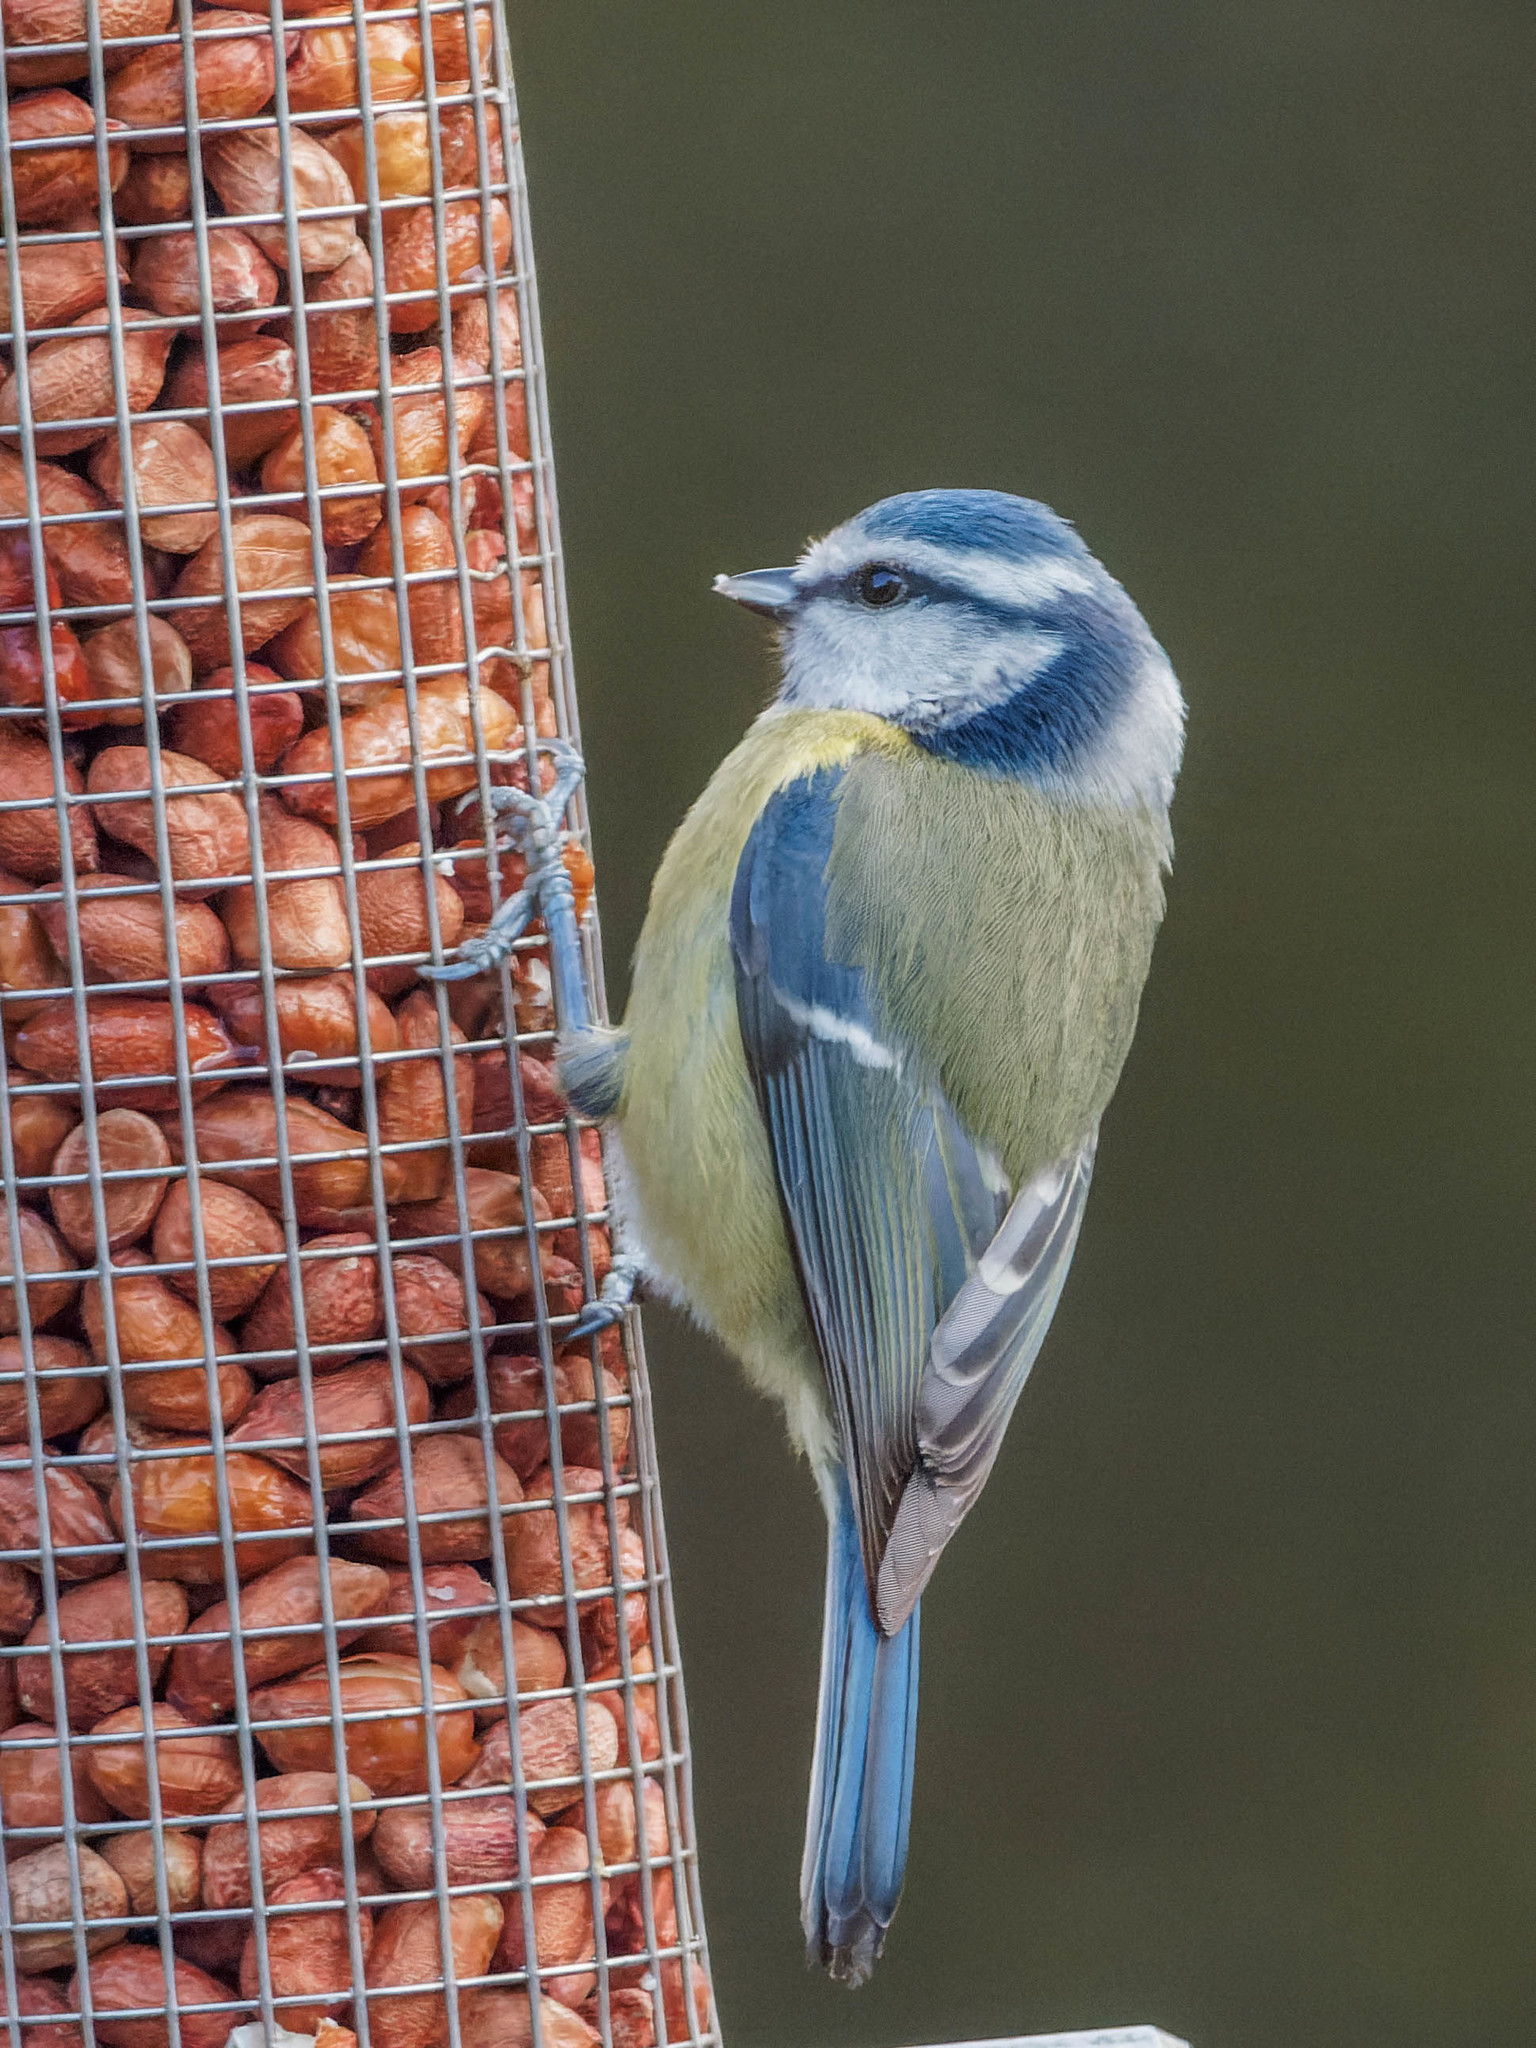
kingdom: Animalia
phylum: Chordata
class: Aves
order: Passeriformes
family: Paridae
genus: Cyanistes
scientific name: Cyanistes caeruleus
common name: Eurasian blue tit
